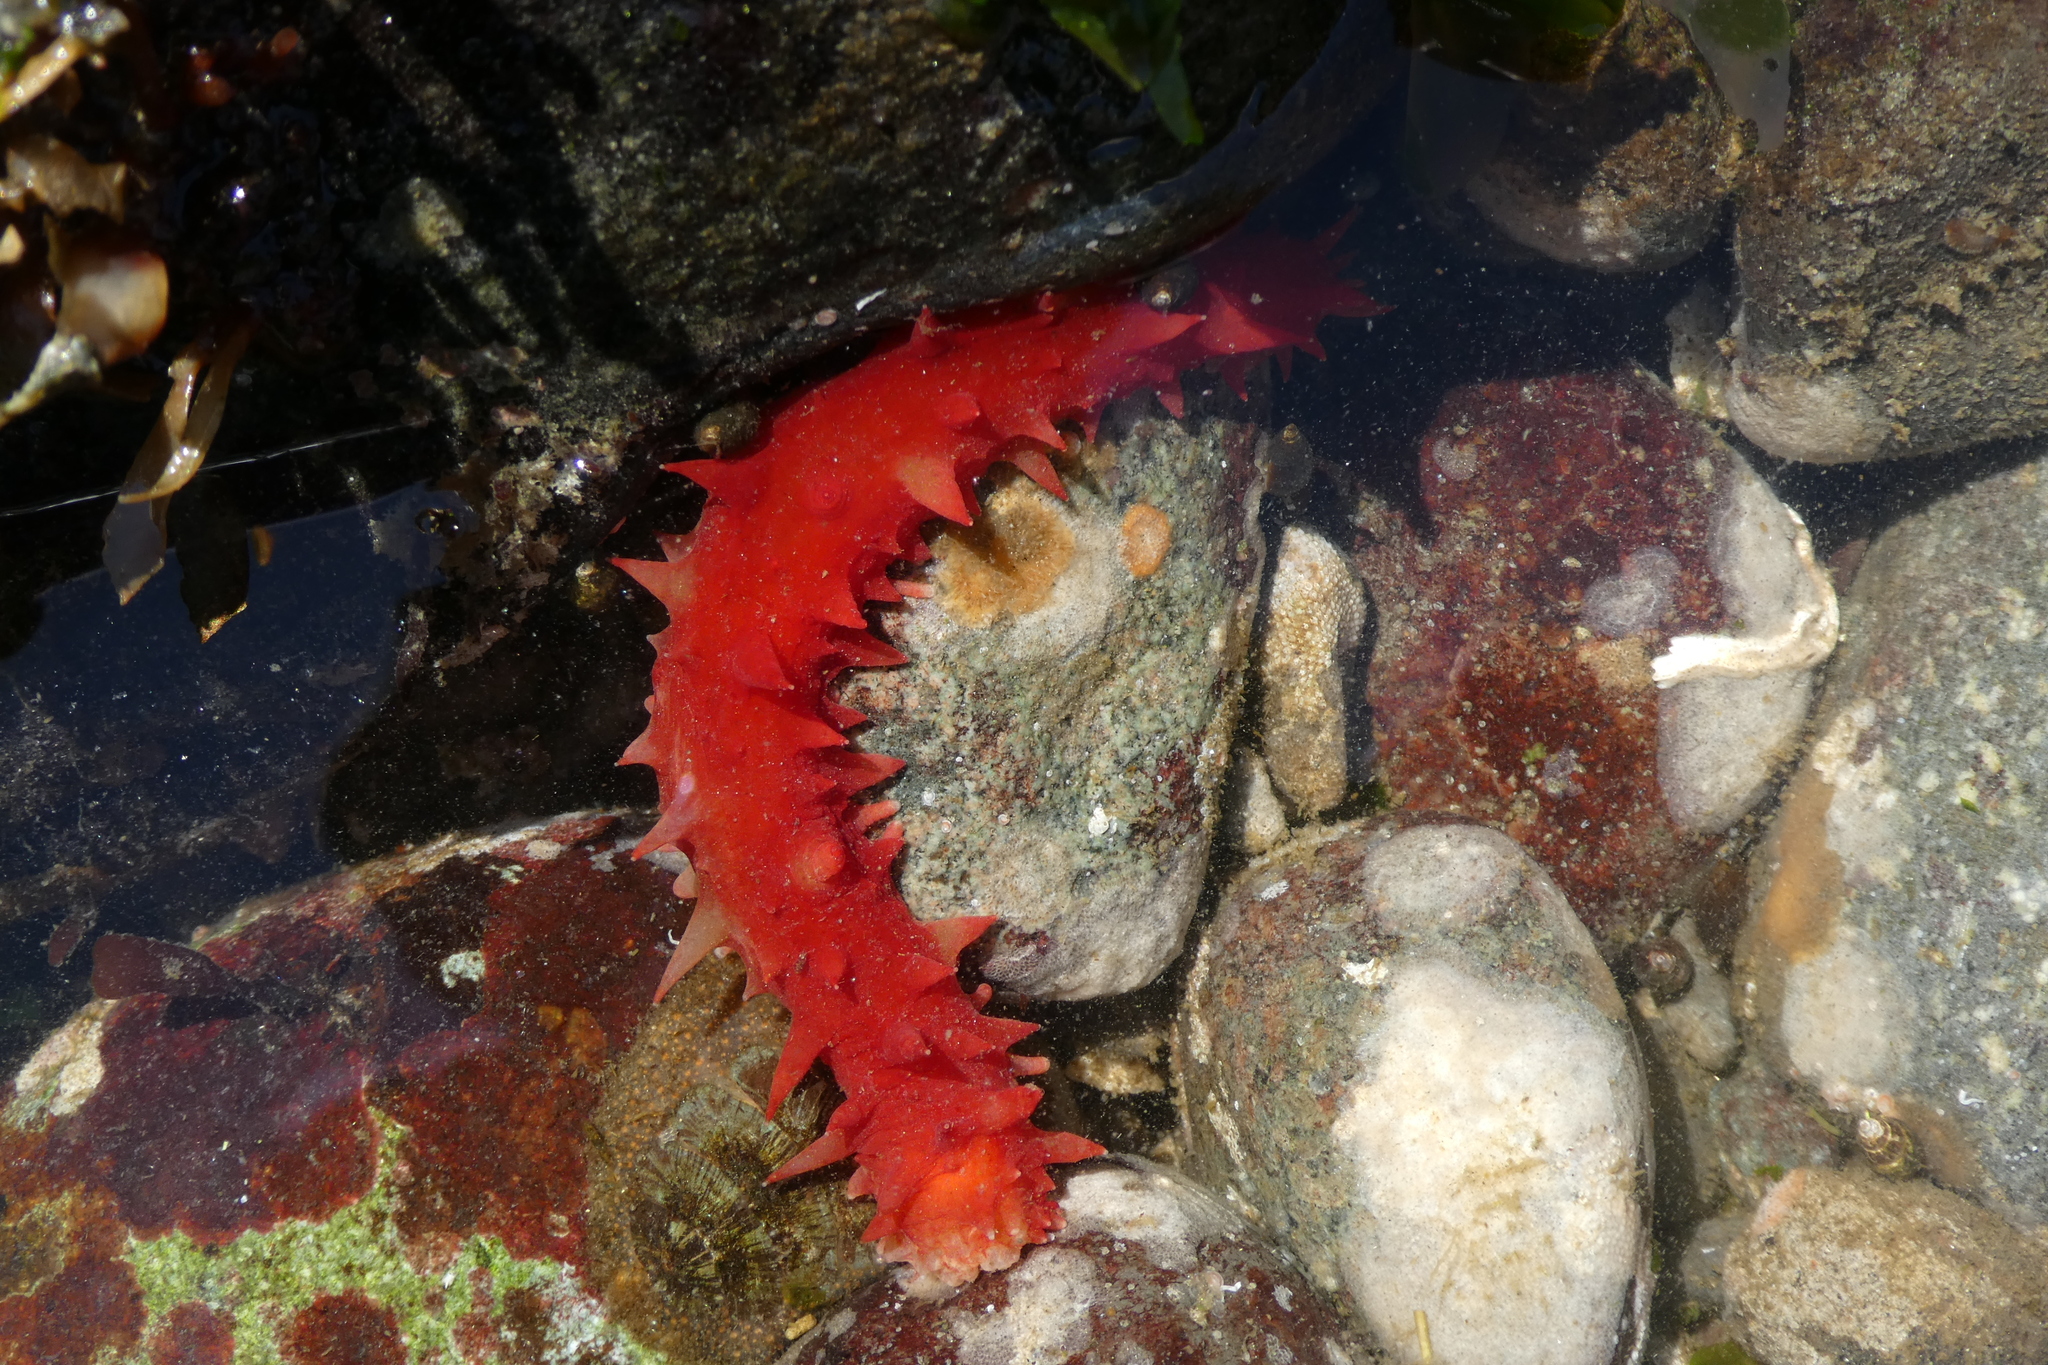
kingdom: Animalia
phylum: Echinodermata
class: Holothuroidea
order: Synallactida
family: Stichopodidae
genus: Apostichopus
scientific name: Apostichopus californicus
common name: California sea cucumber
